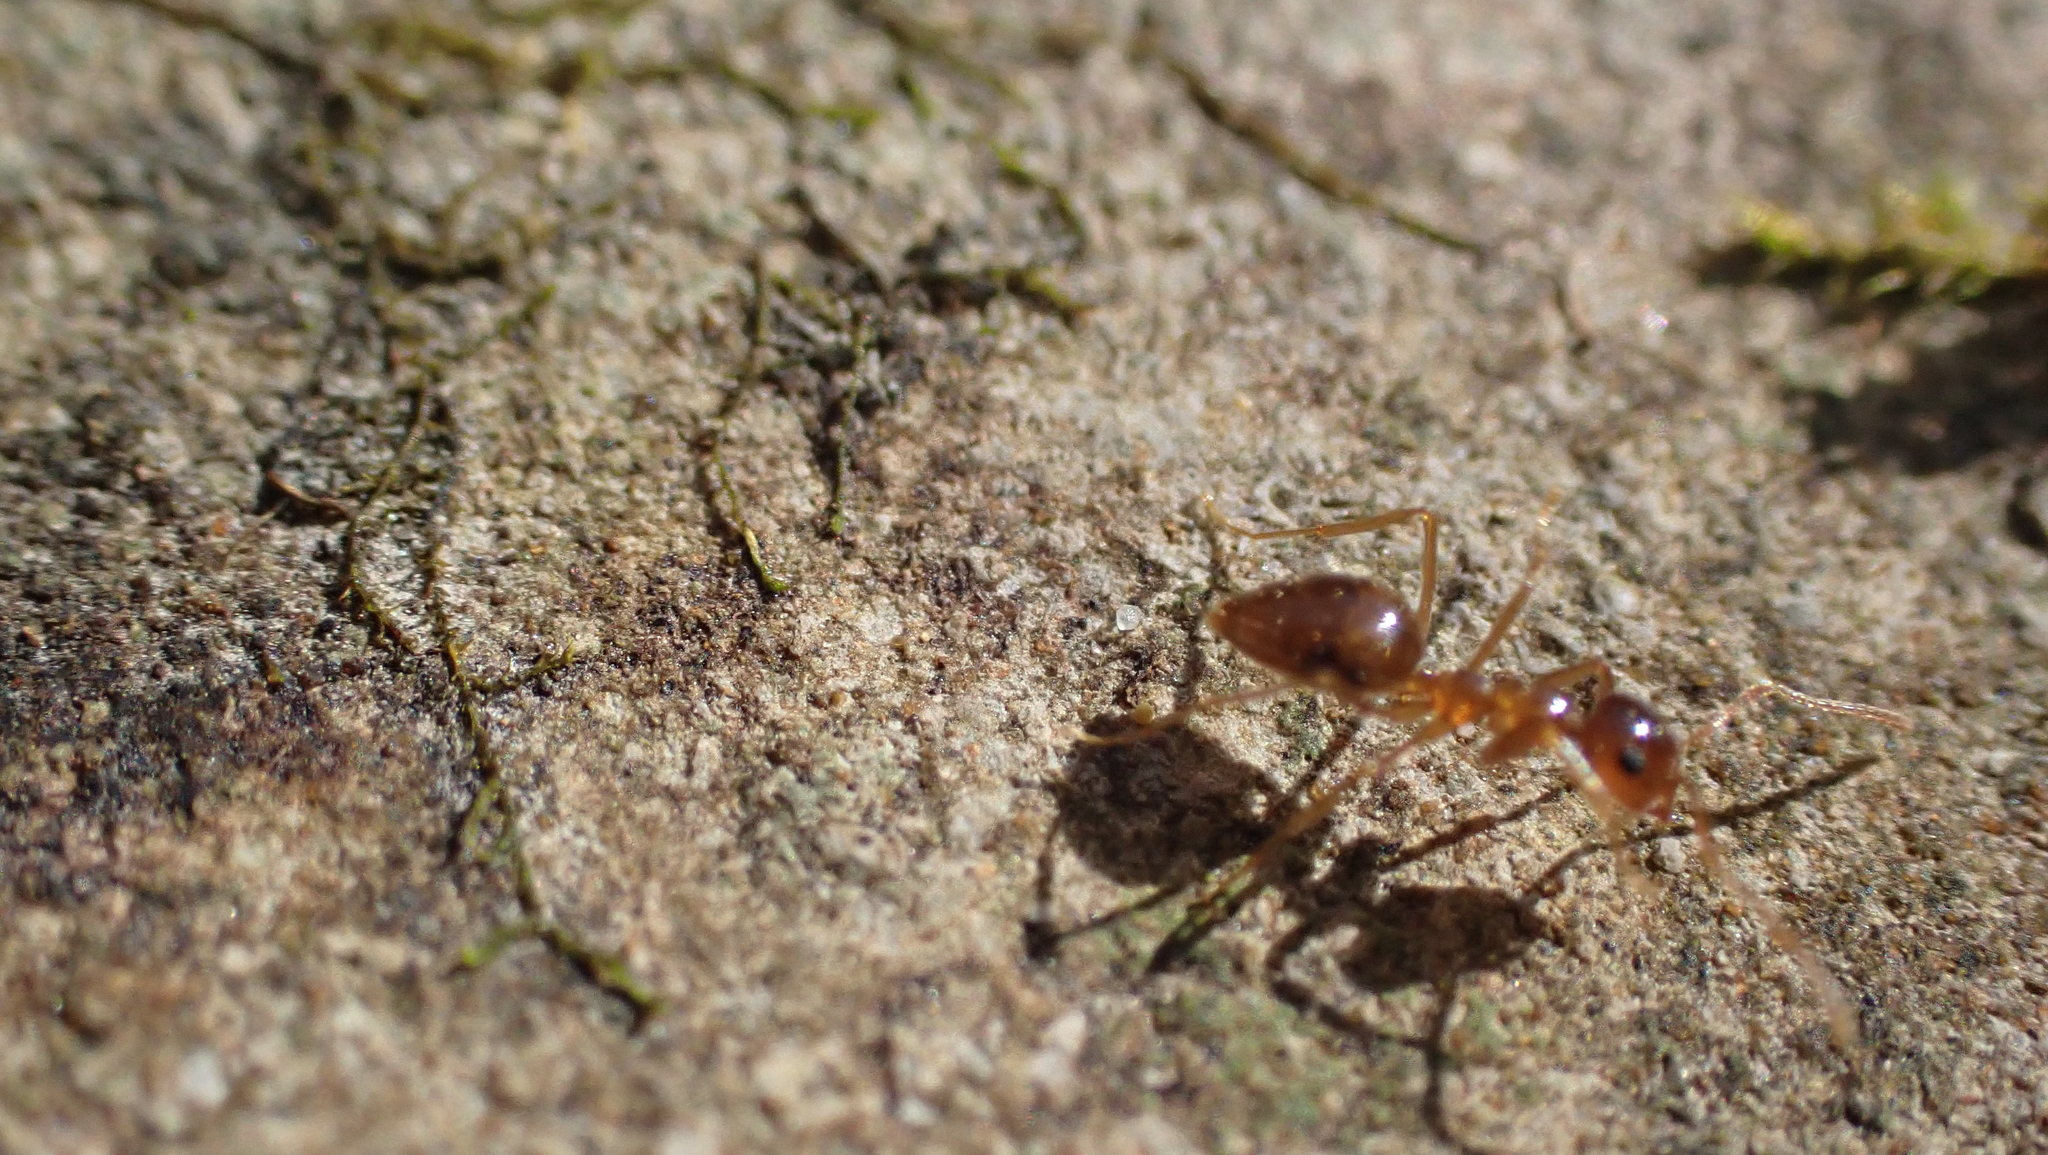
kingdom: Animalia
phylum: Arthropoda
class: Insecta
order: Hymenoptera
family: Formicidae
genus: Prenolepis
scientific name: Prenolepis imparis
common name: Small honey ant
